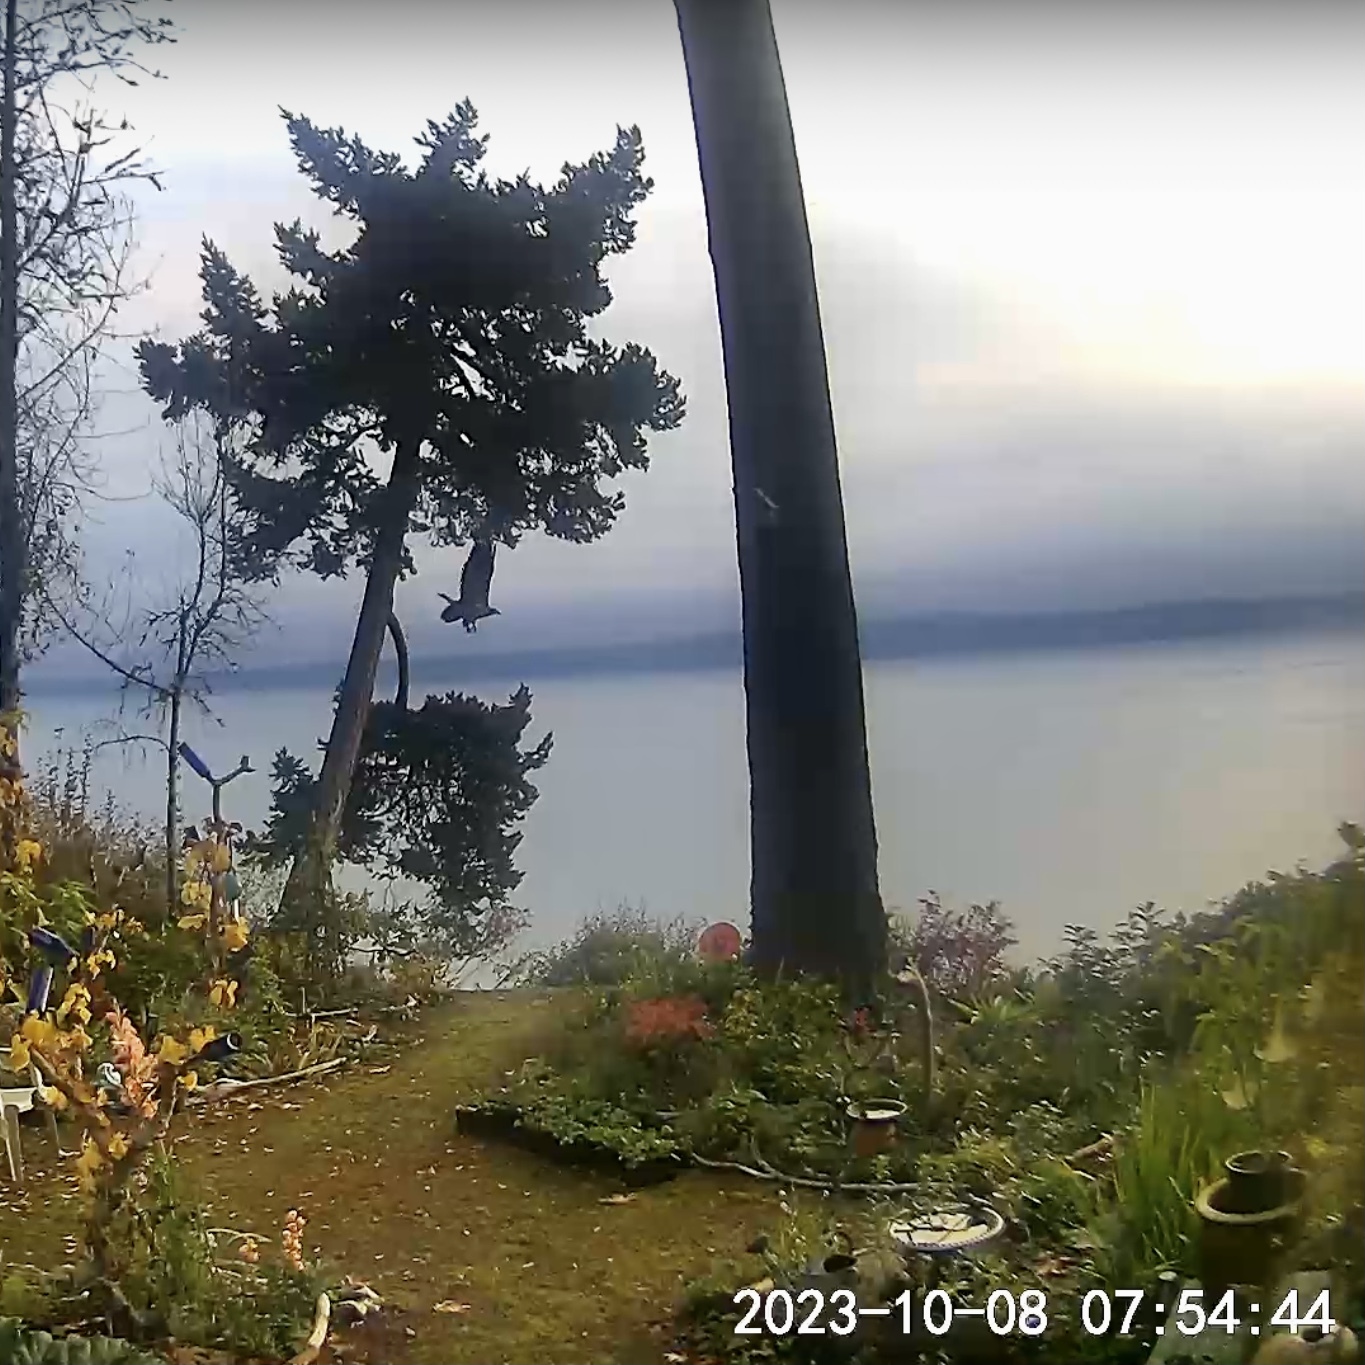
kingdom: Animalia
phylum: Chordata
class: Aves
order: Accipitriformes
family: Accipitridae
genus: Haliaeetus
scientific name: Haliaeetus leucocephalus
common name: Bald eagle
